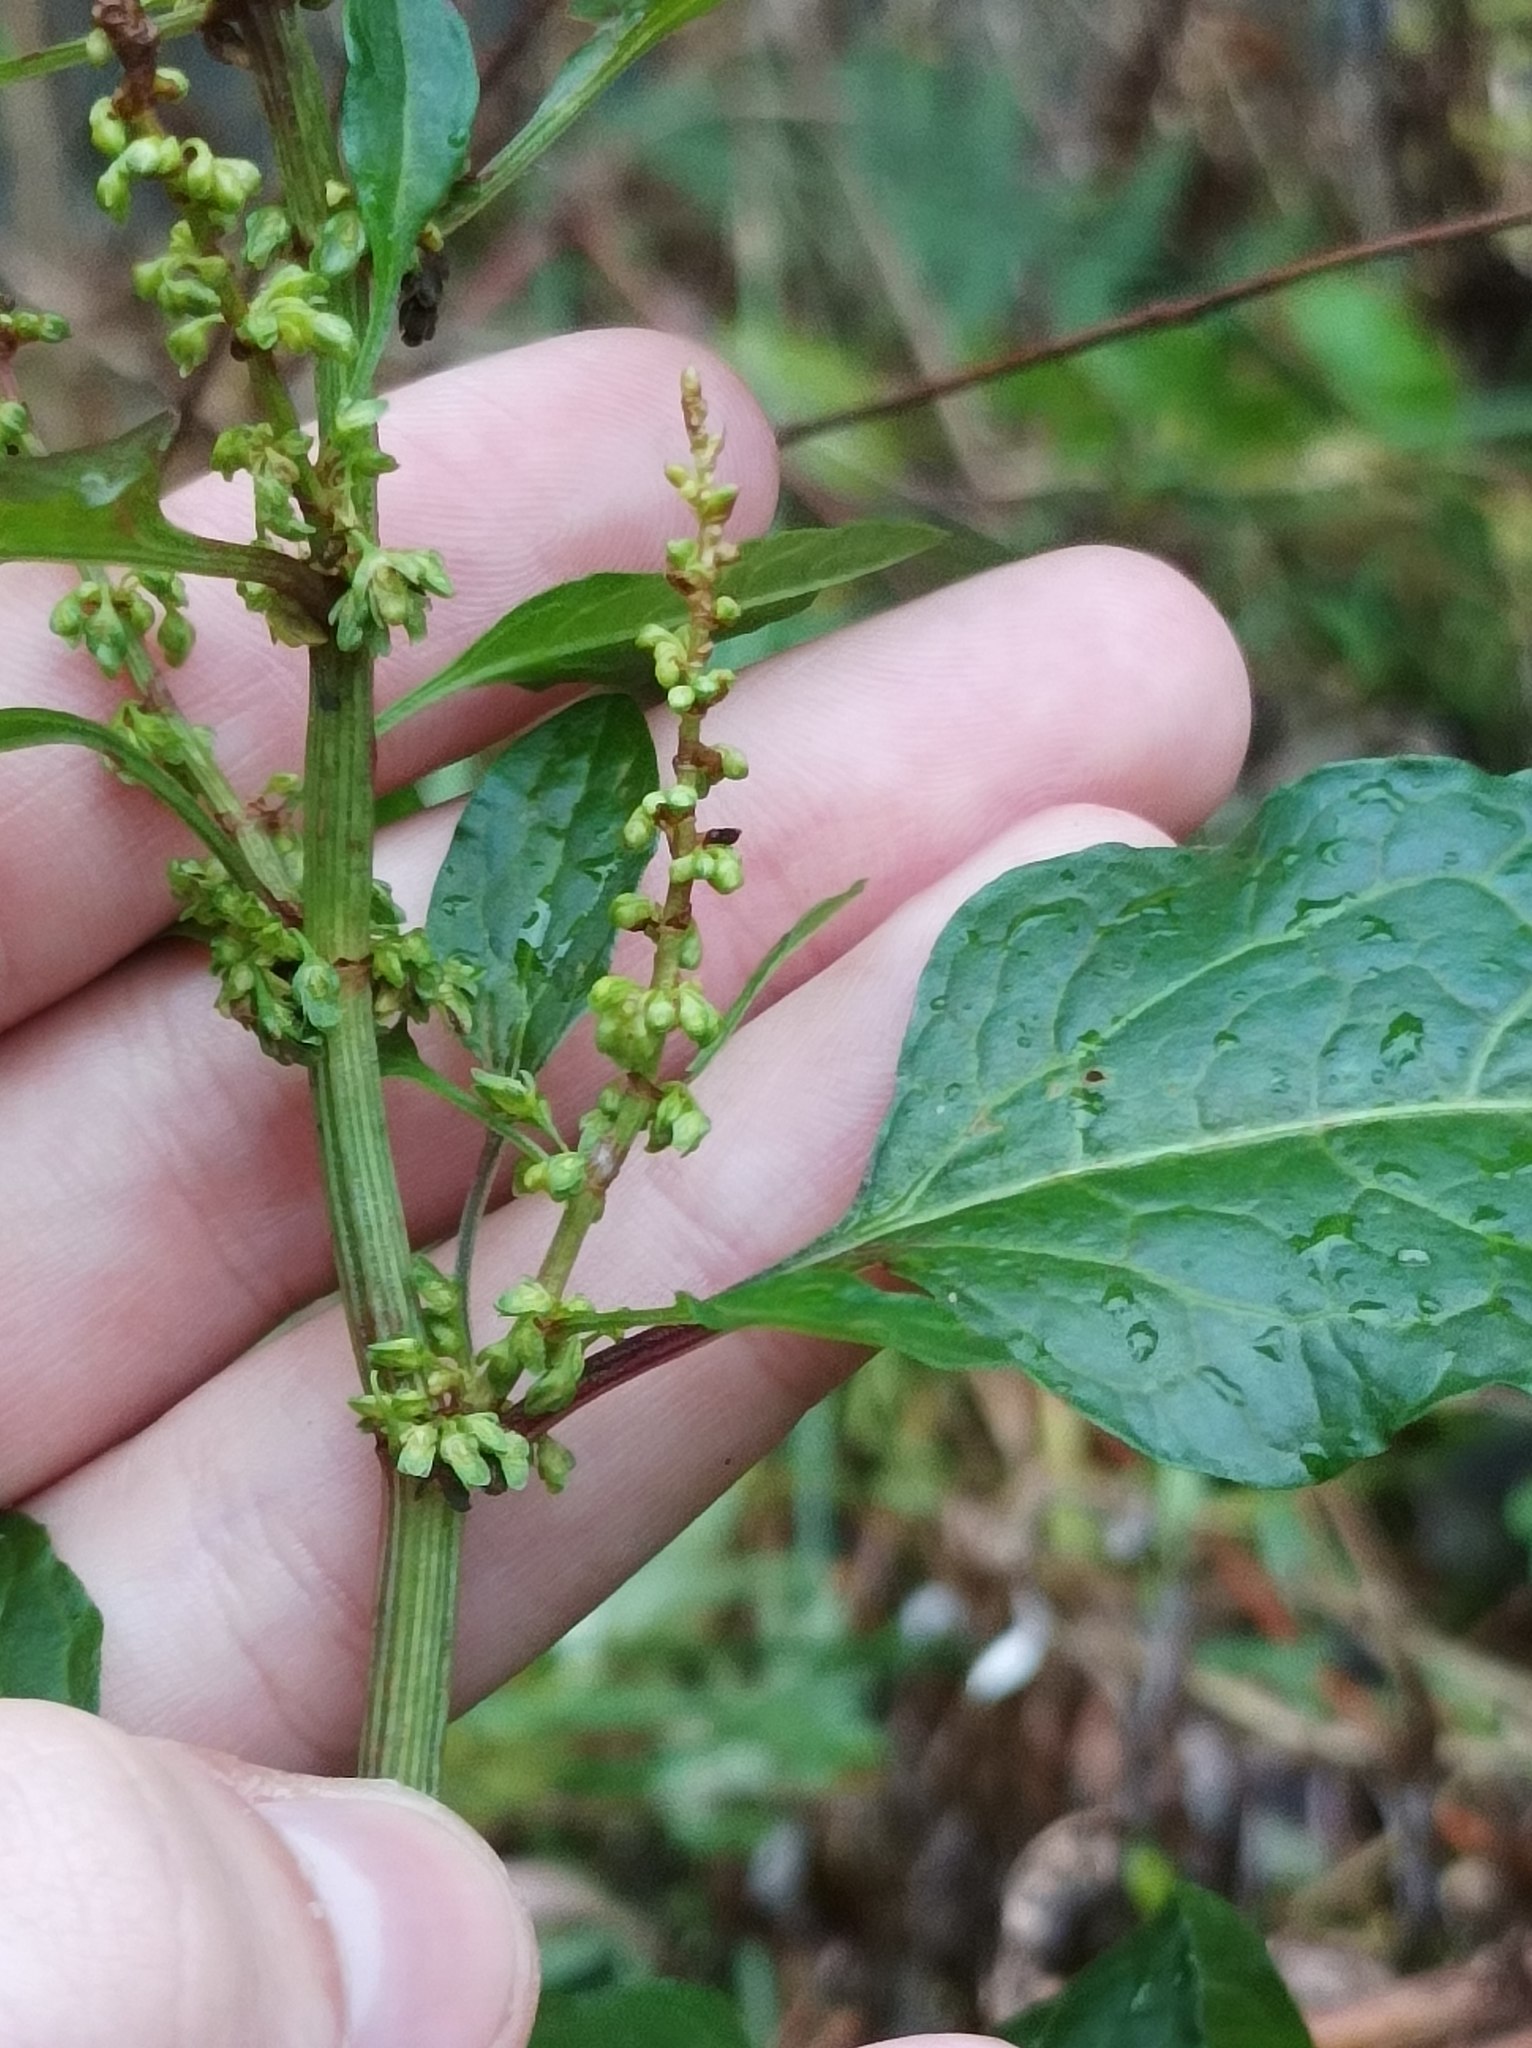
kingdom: Plantae
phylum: Tracheophyta
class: Magnoliopsida
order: Caryophyllales
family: Polygonaceae
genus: Rumex
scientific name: Rumex obtusifolius
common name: Bitter dock
